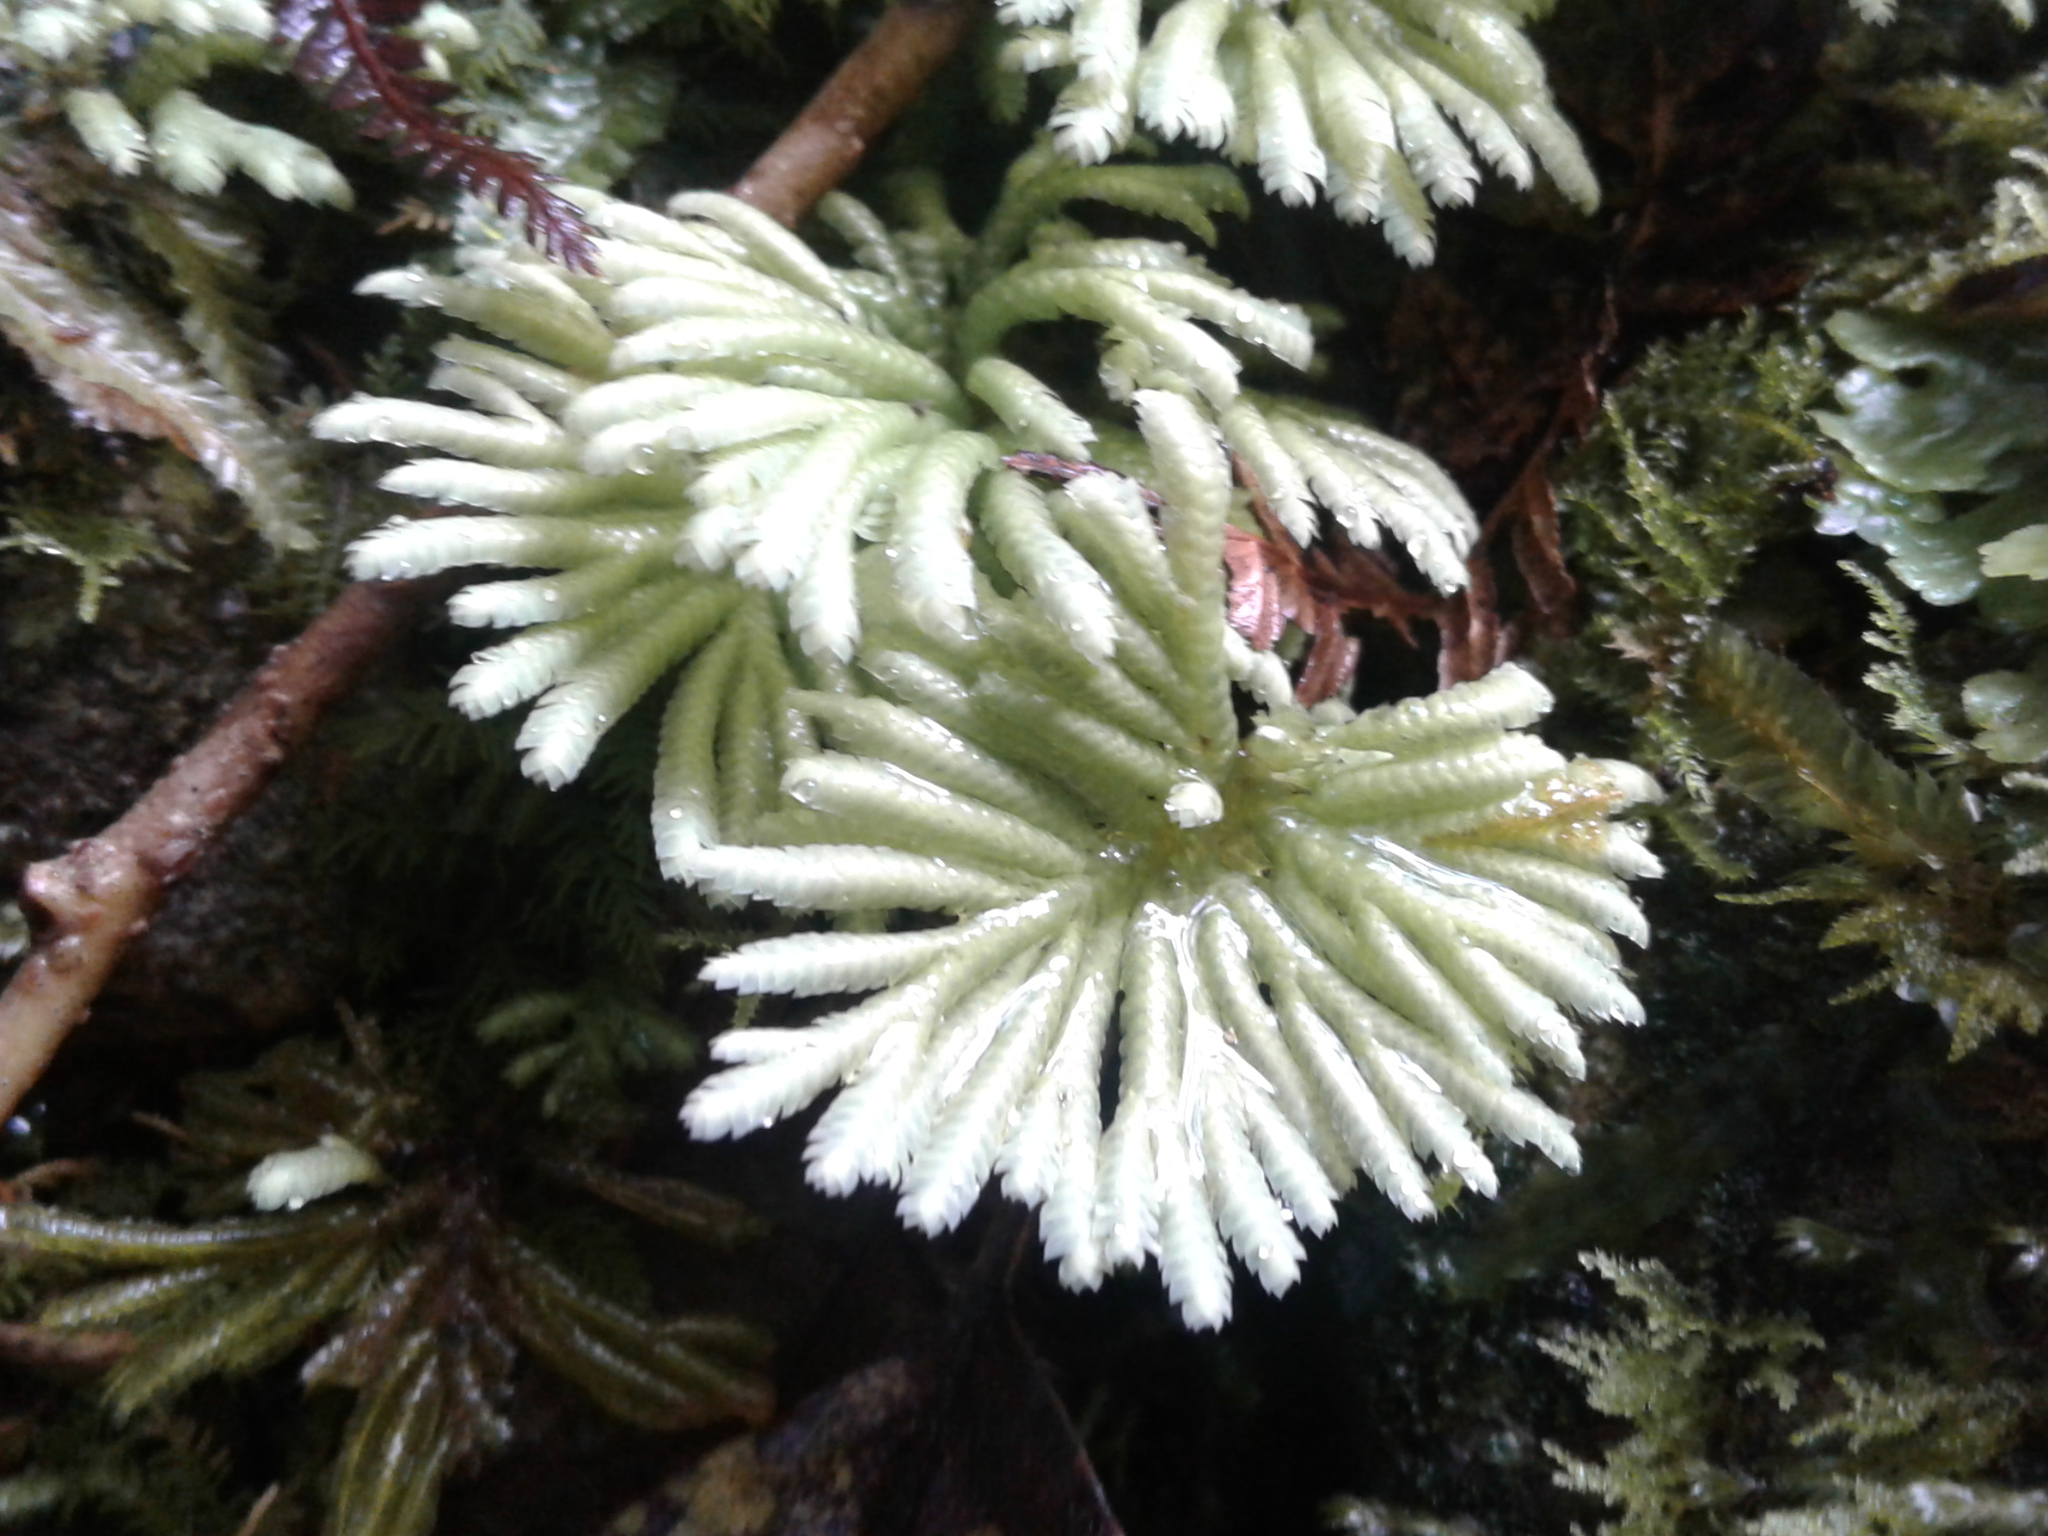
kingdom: Plantae
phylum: Bryophyta
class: Bryopsida
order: Hypopterygiales
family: Hypopterygiaceae
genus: Hypopterygium
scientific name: Hypopterygium
